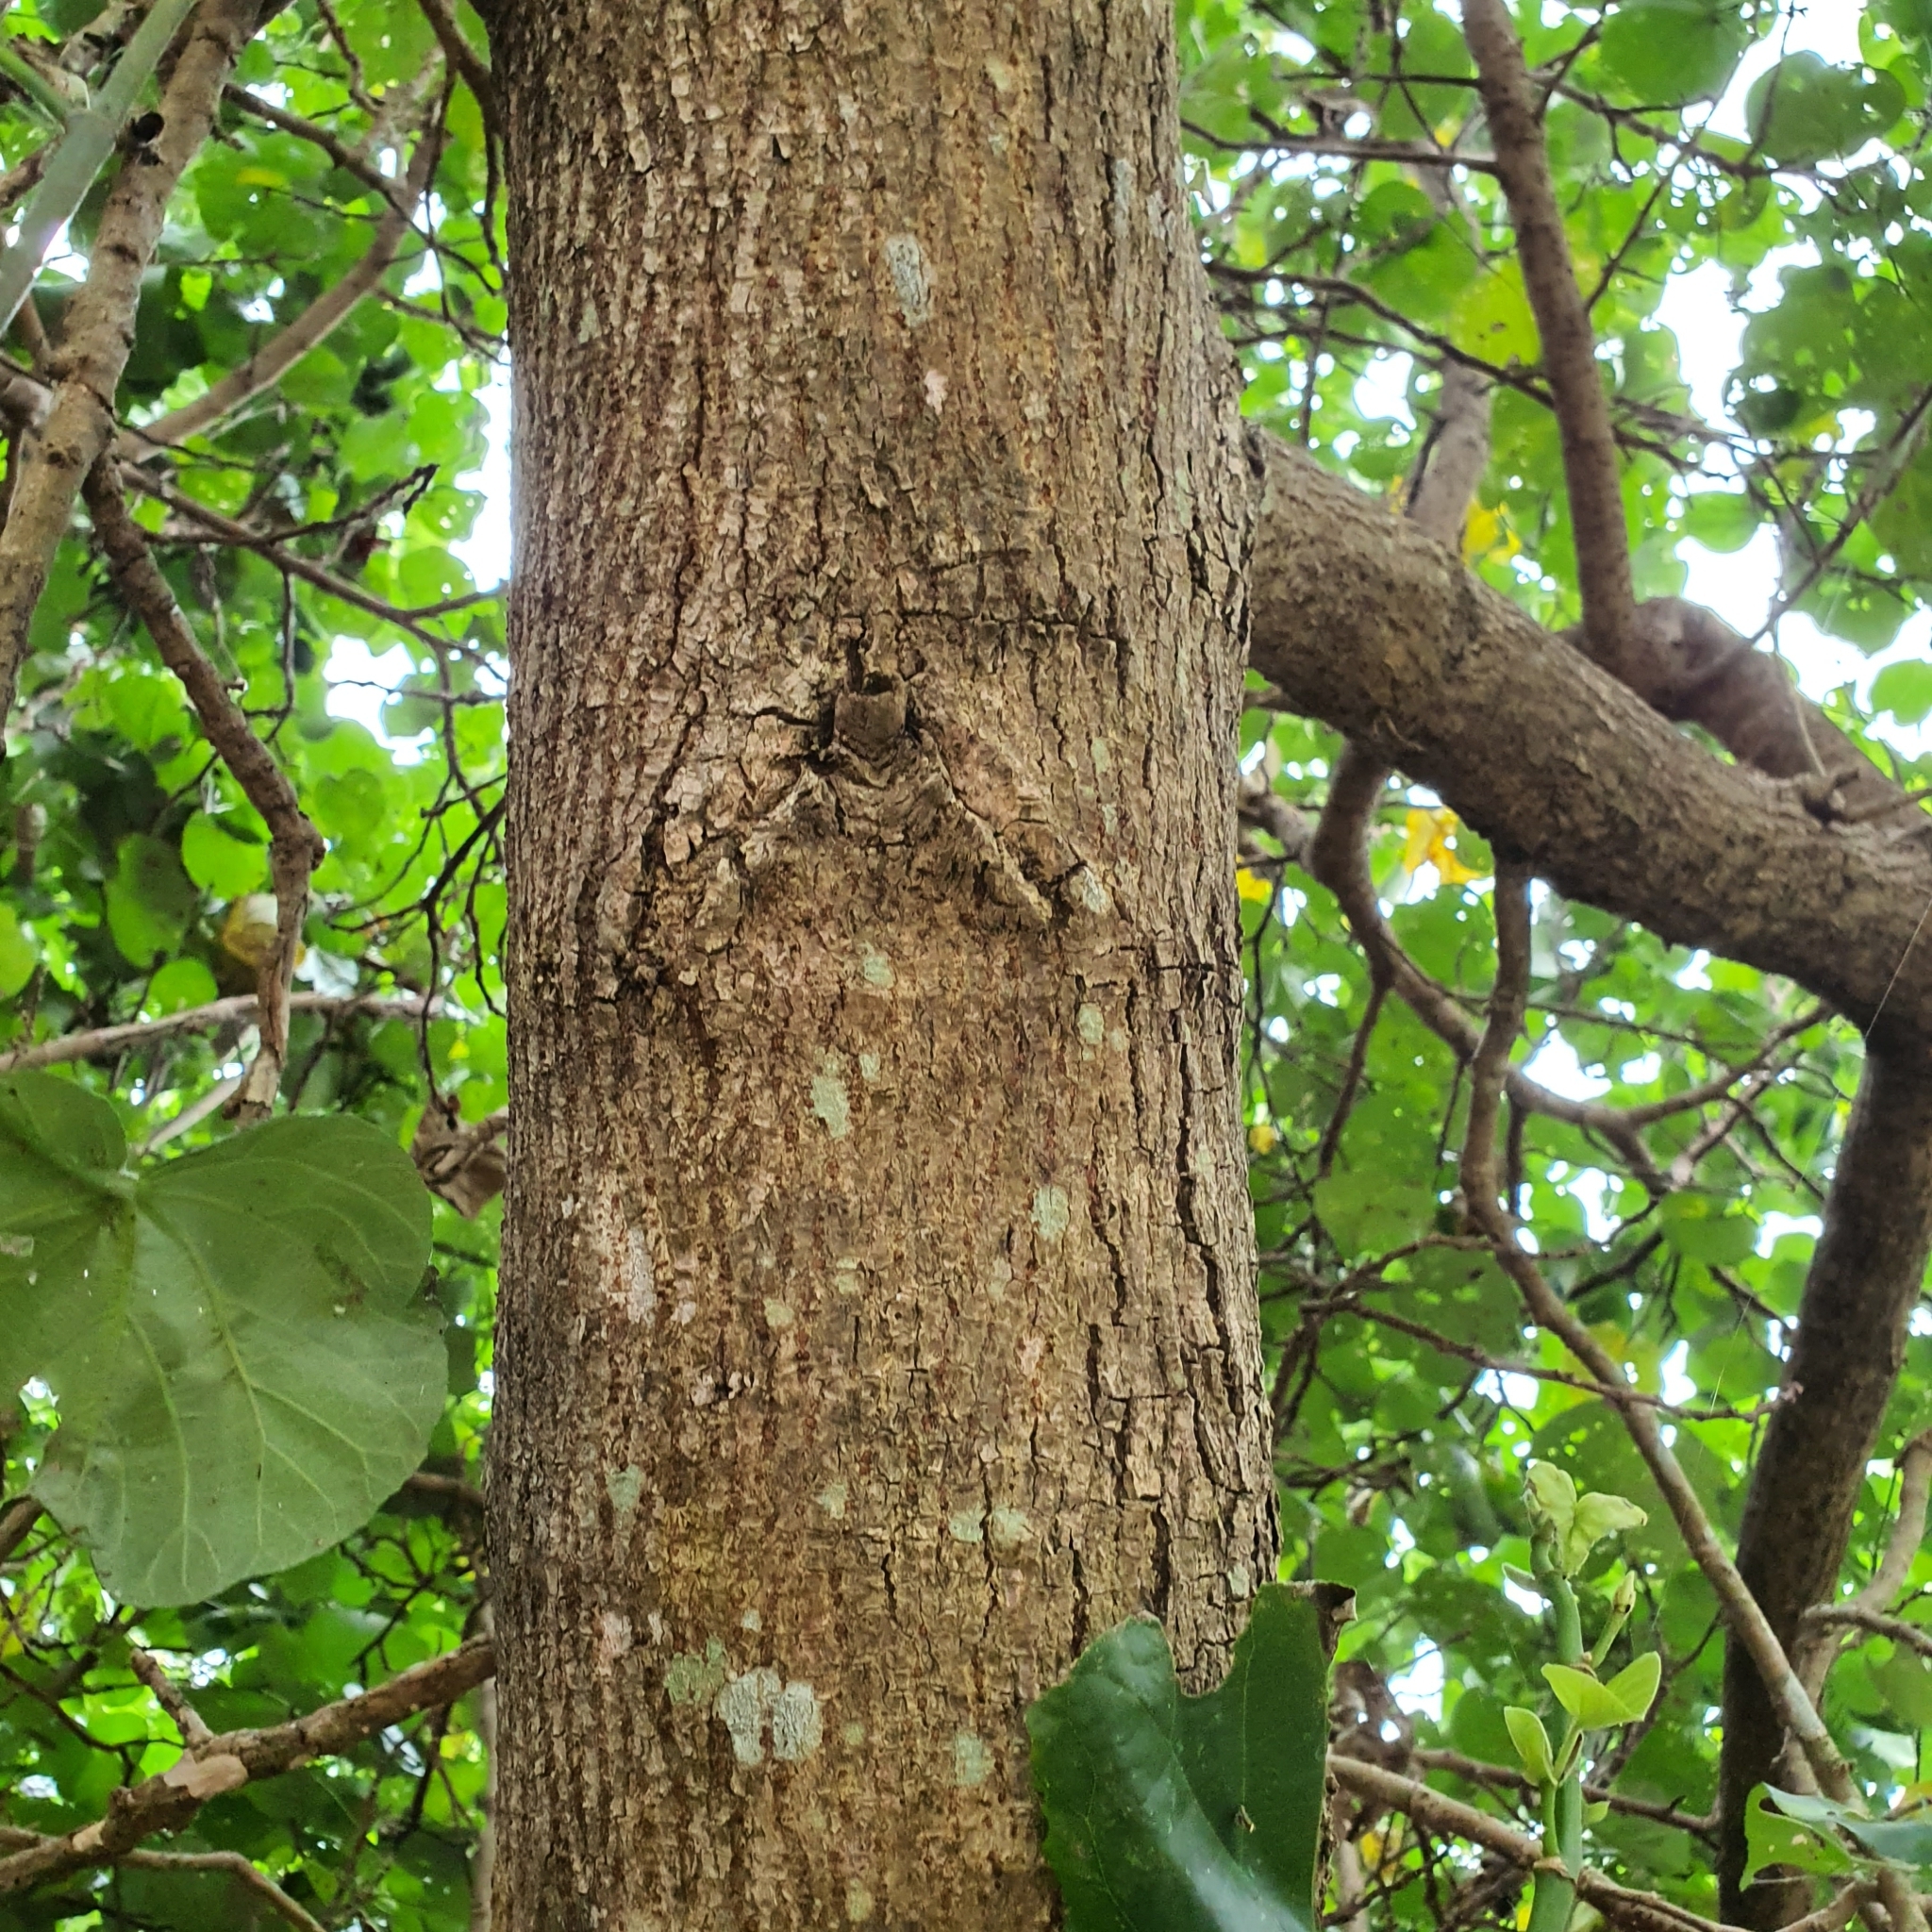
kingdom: Plantae
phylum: Tracheophyta
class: Magnoliopsida
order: Malvales
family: Malvaceae
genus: Talipariti
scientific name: Talipariti tiliaceum
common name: Sea hibiscus
